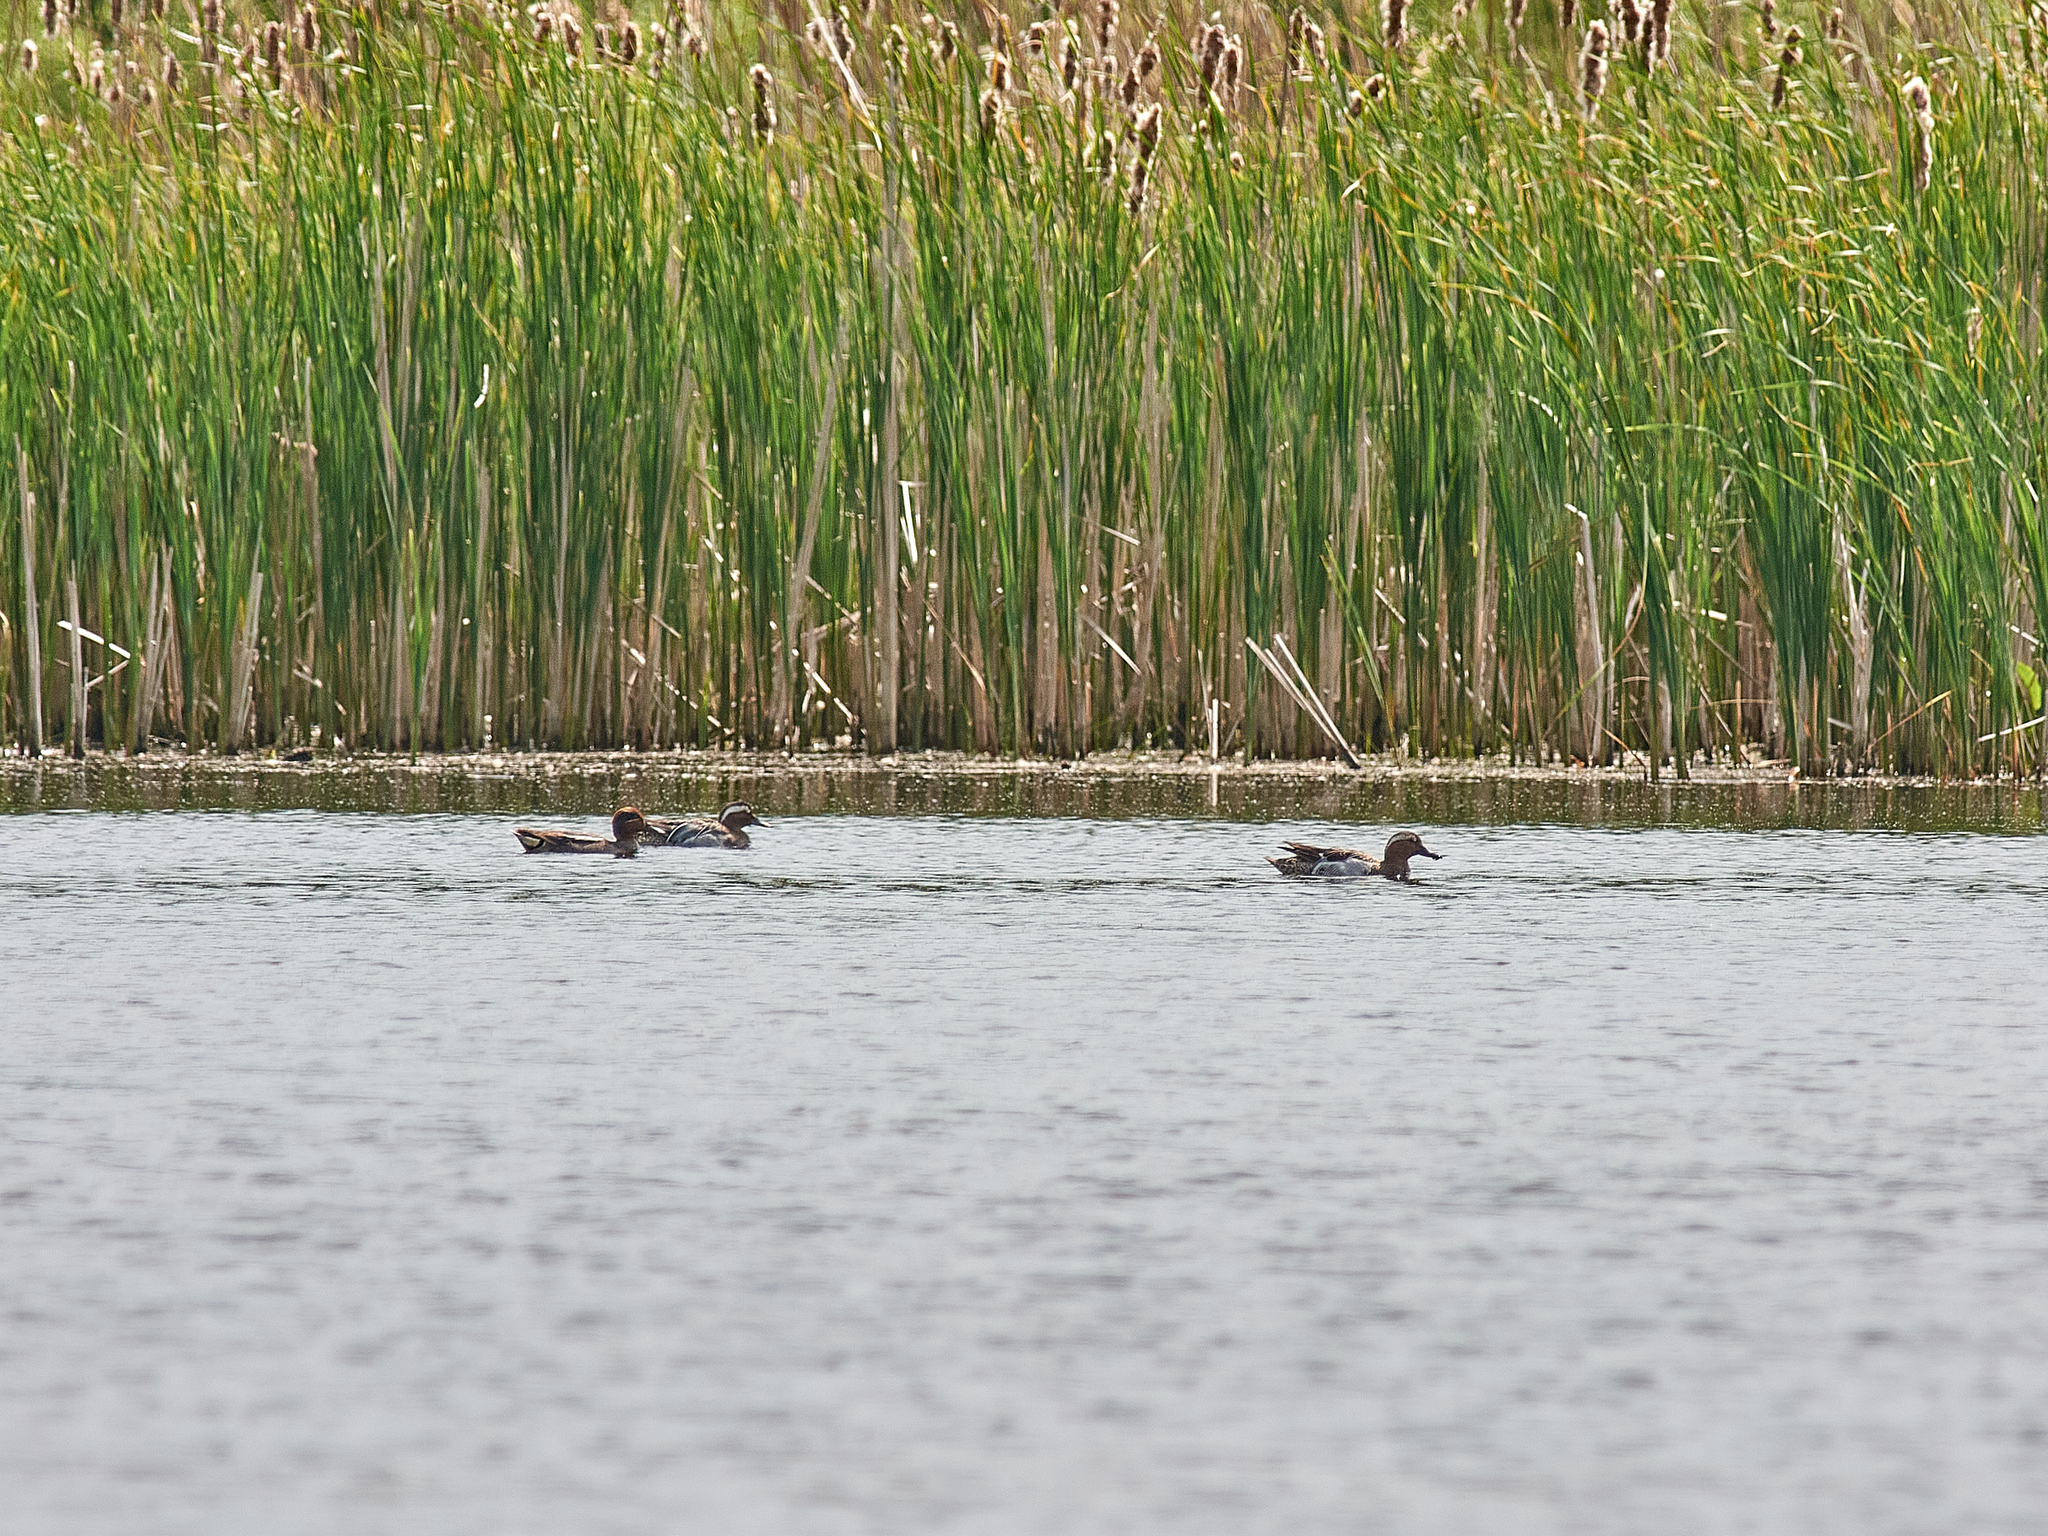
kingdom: Animalia
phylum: Chordata
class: Aves
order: Anseriformes
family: Anatidae
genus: Spatula
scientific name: Spatula querquedula
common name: Garganey
